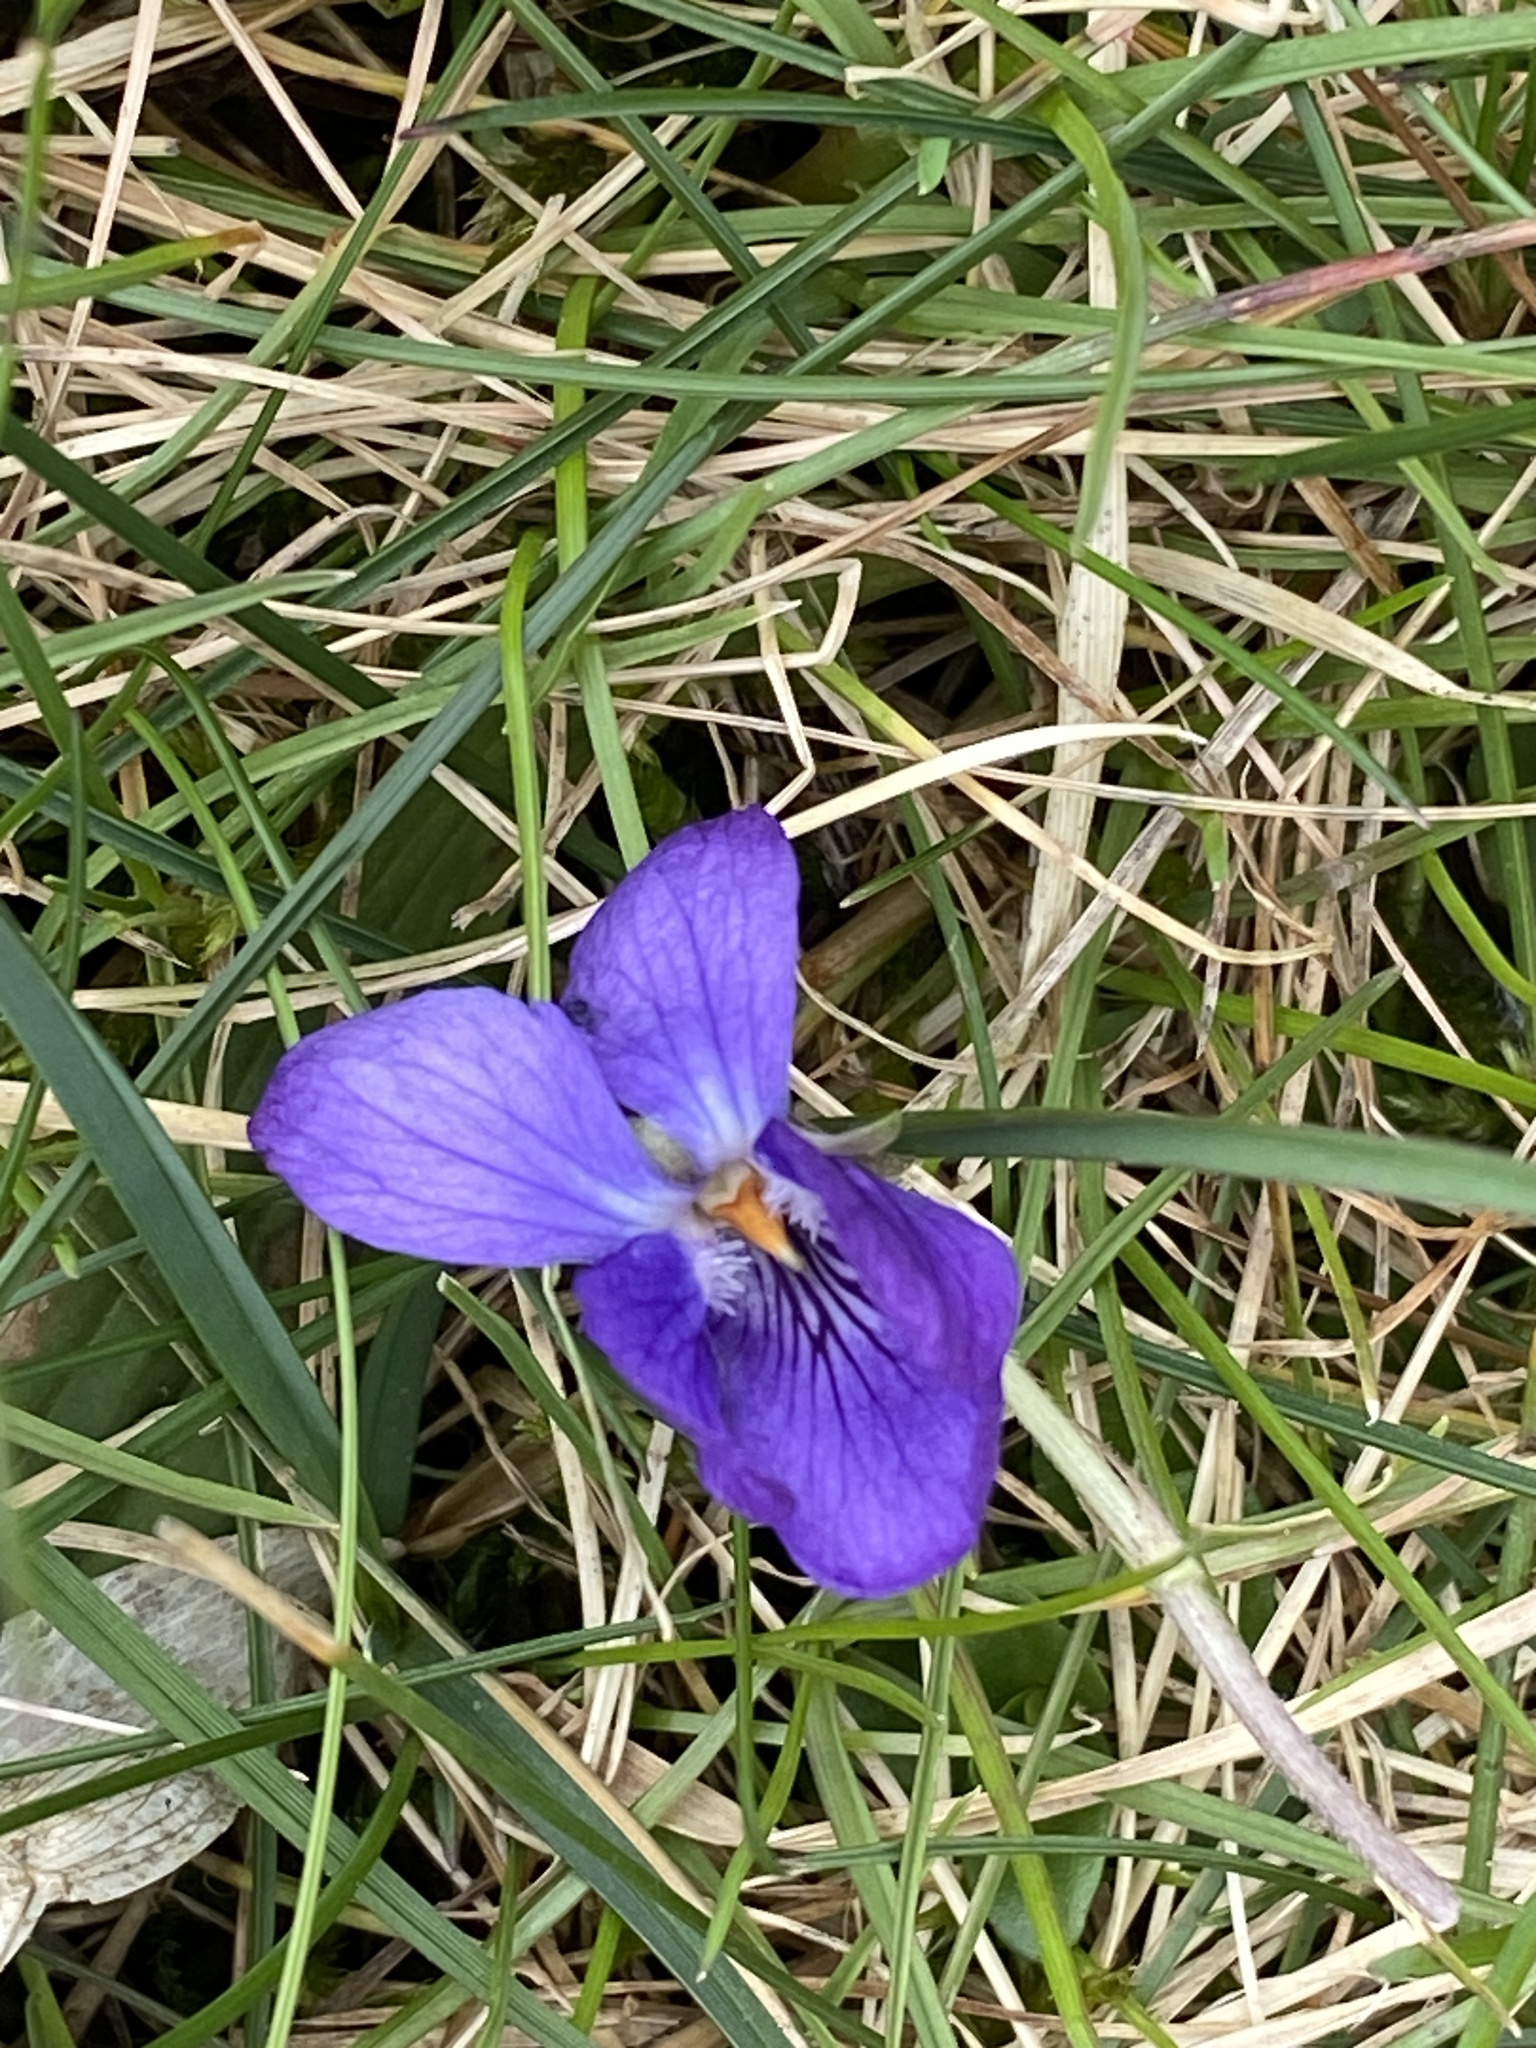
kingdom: Plantae
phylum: Tracheophyta
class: Magnoliopsida
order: Malpighiales
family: Violaceae
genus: Viola
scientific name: Viola odorata
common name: Sweet violet
